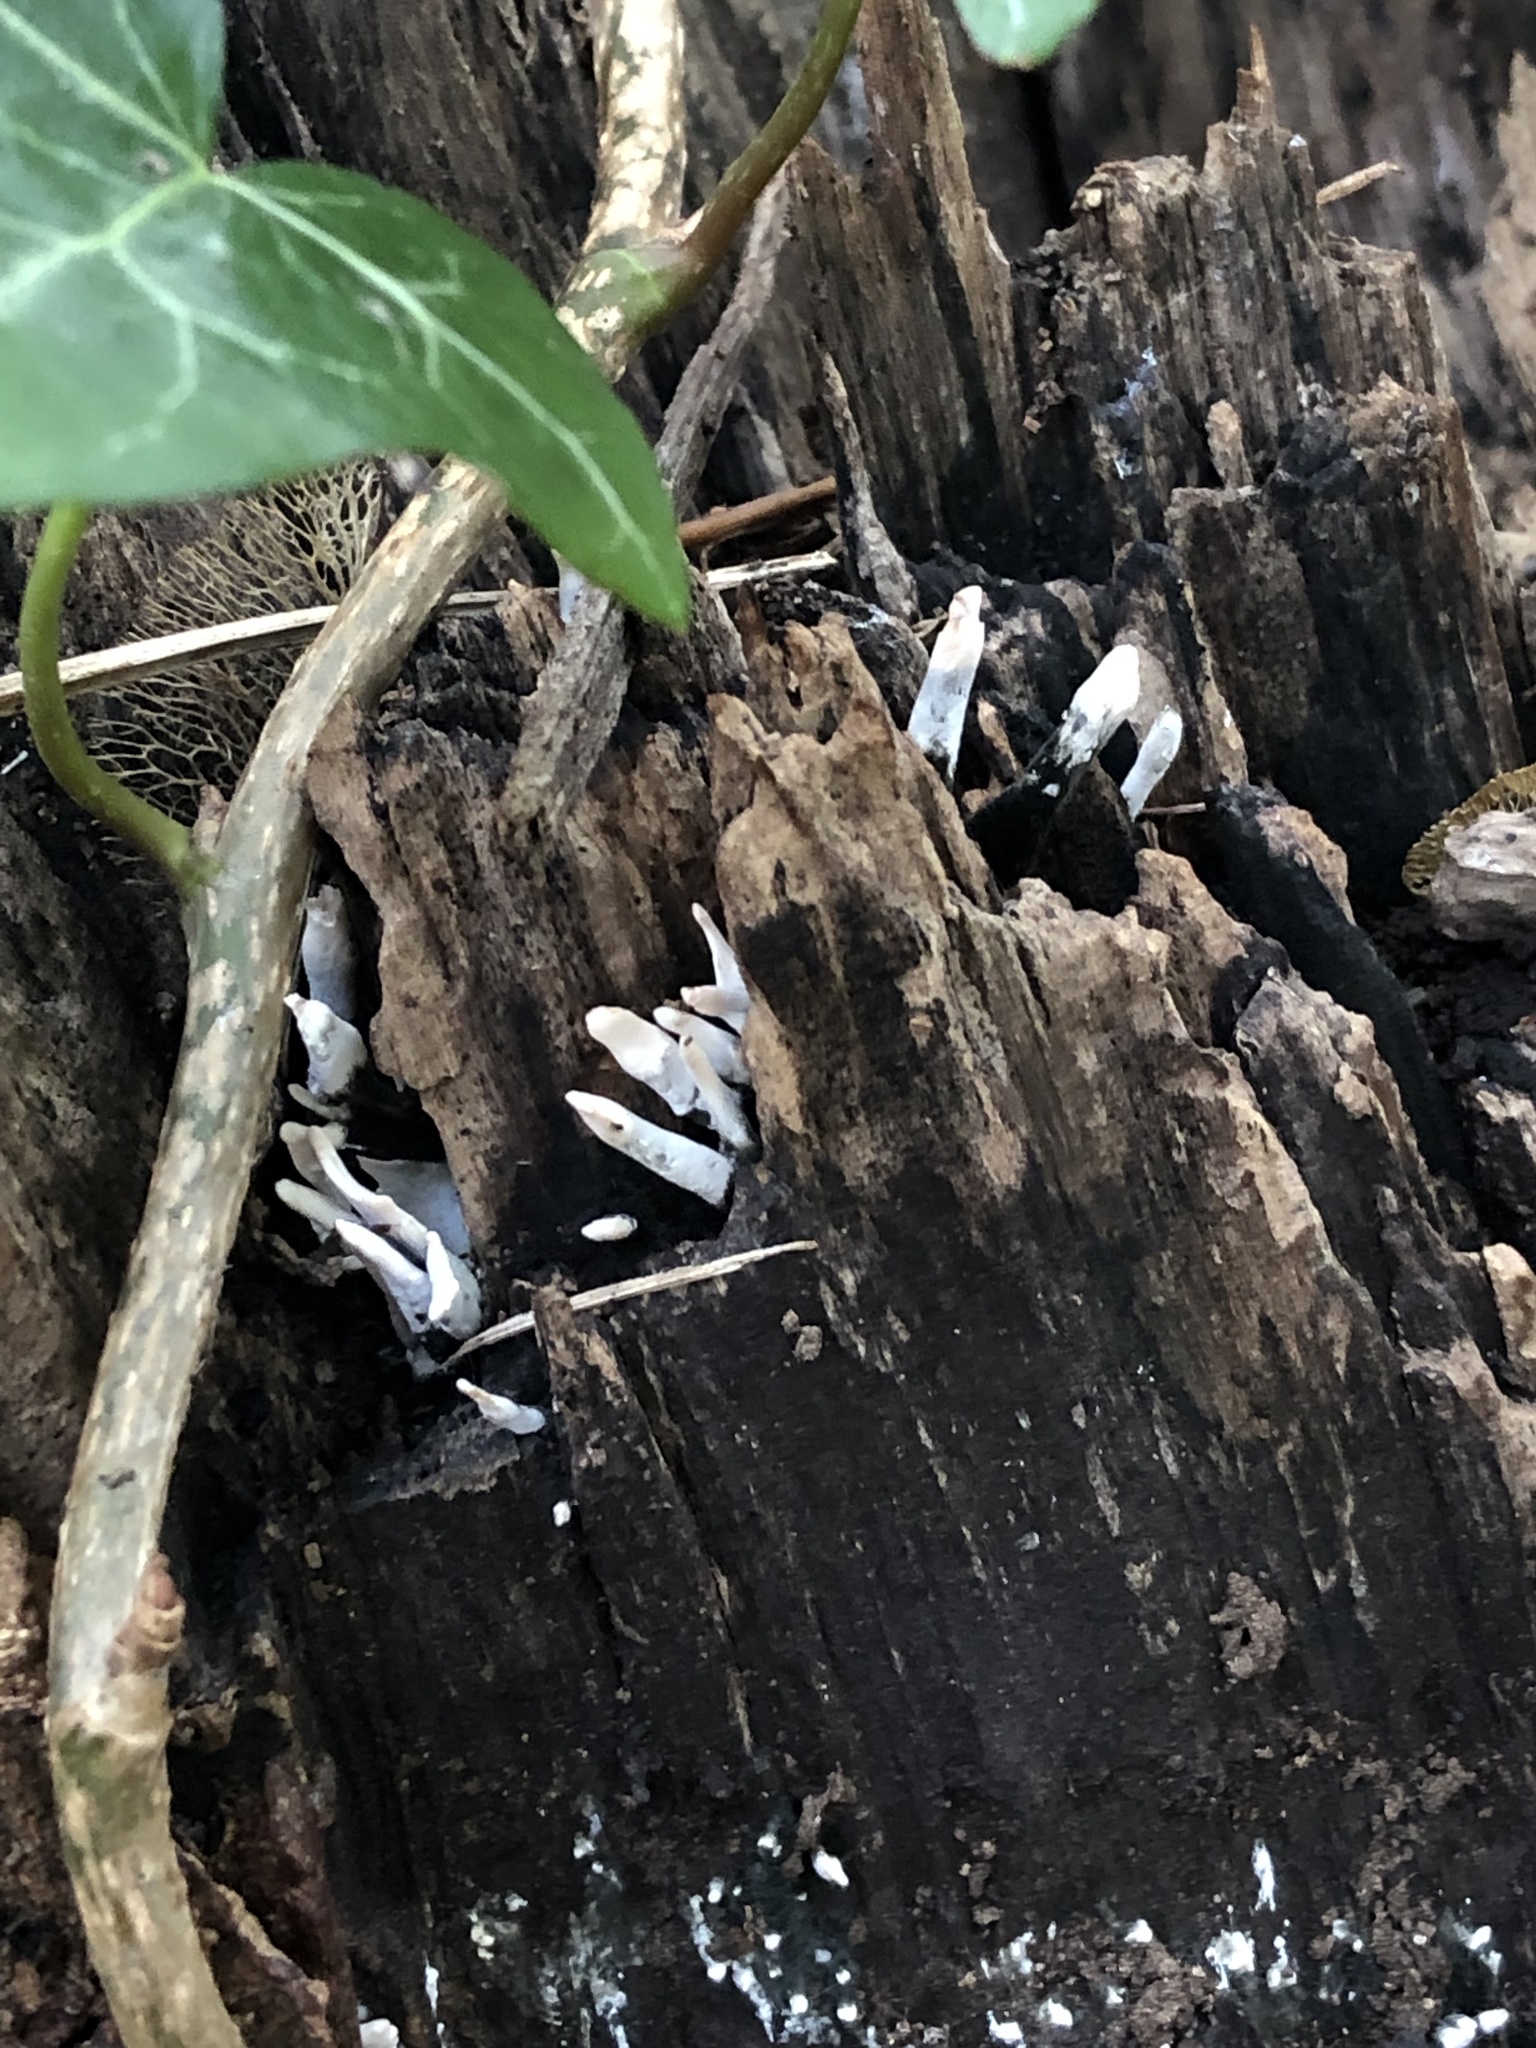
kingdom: Fungi
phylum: Ascomycota
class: Sordariomycetes
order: Xylariales
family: Xylariaceae
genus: Xylaria
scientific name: Xylaria hypoxylon
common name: Candle-snuff fungus
